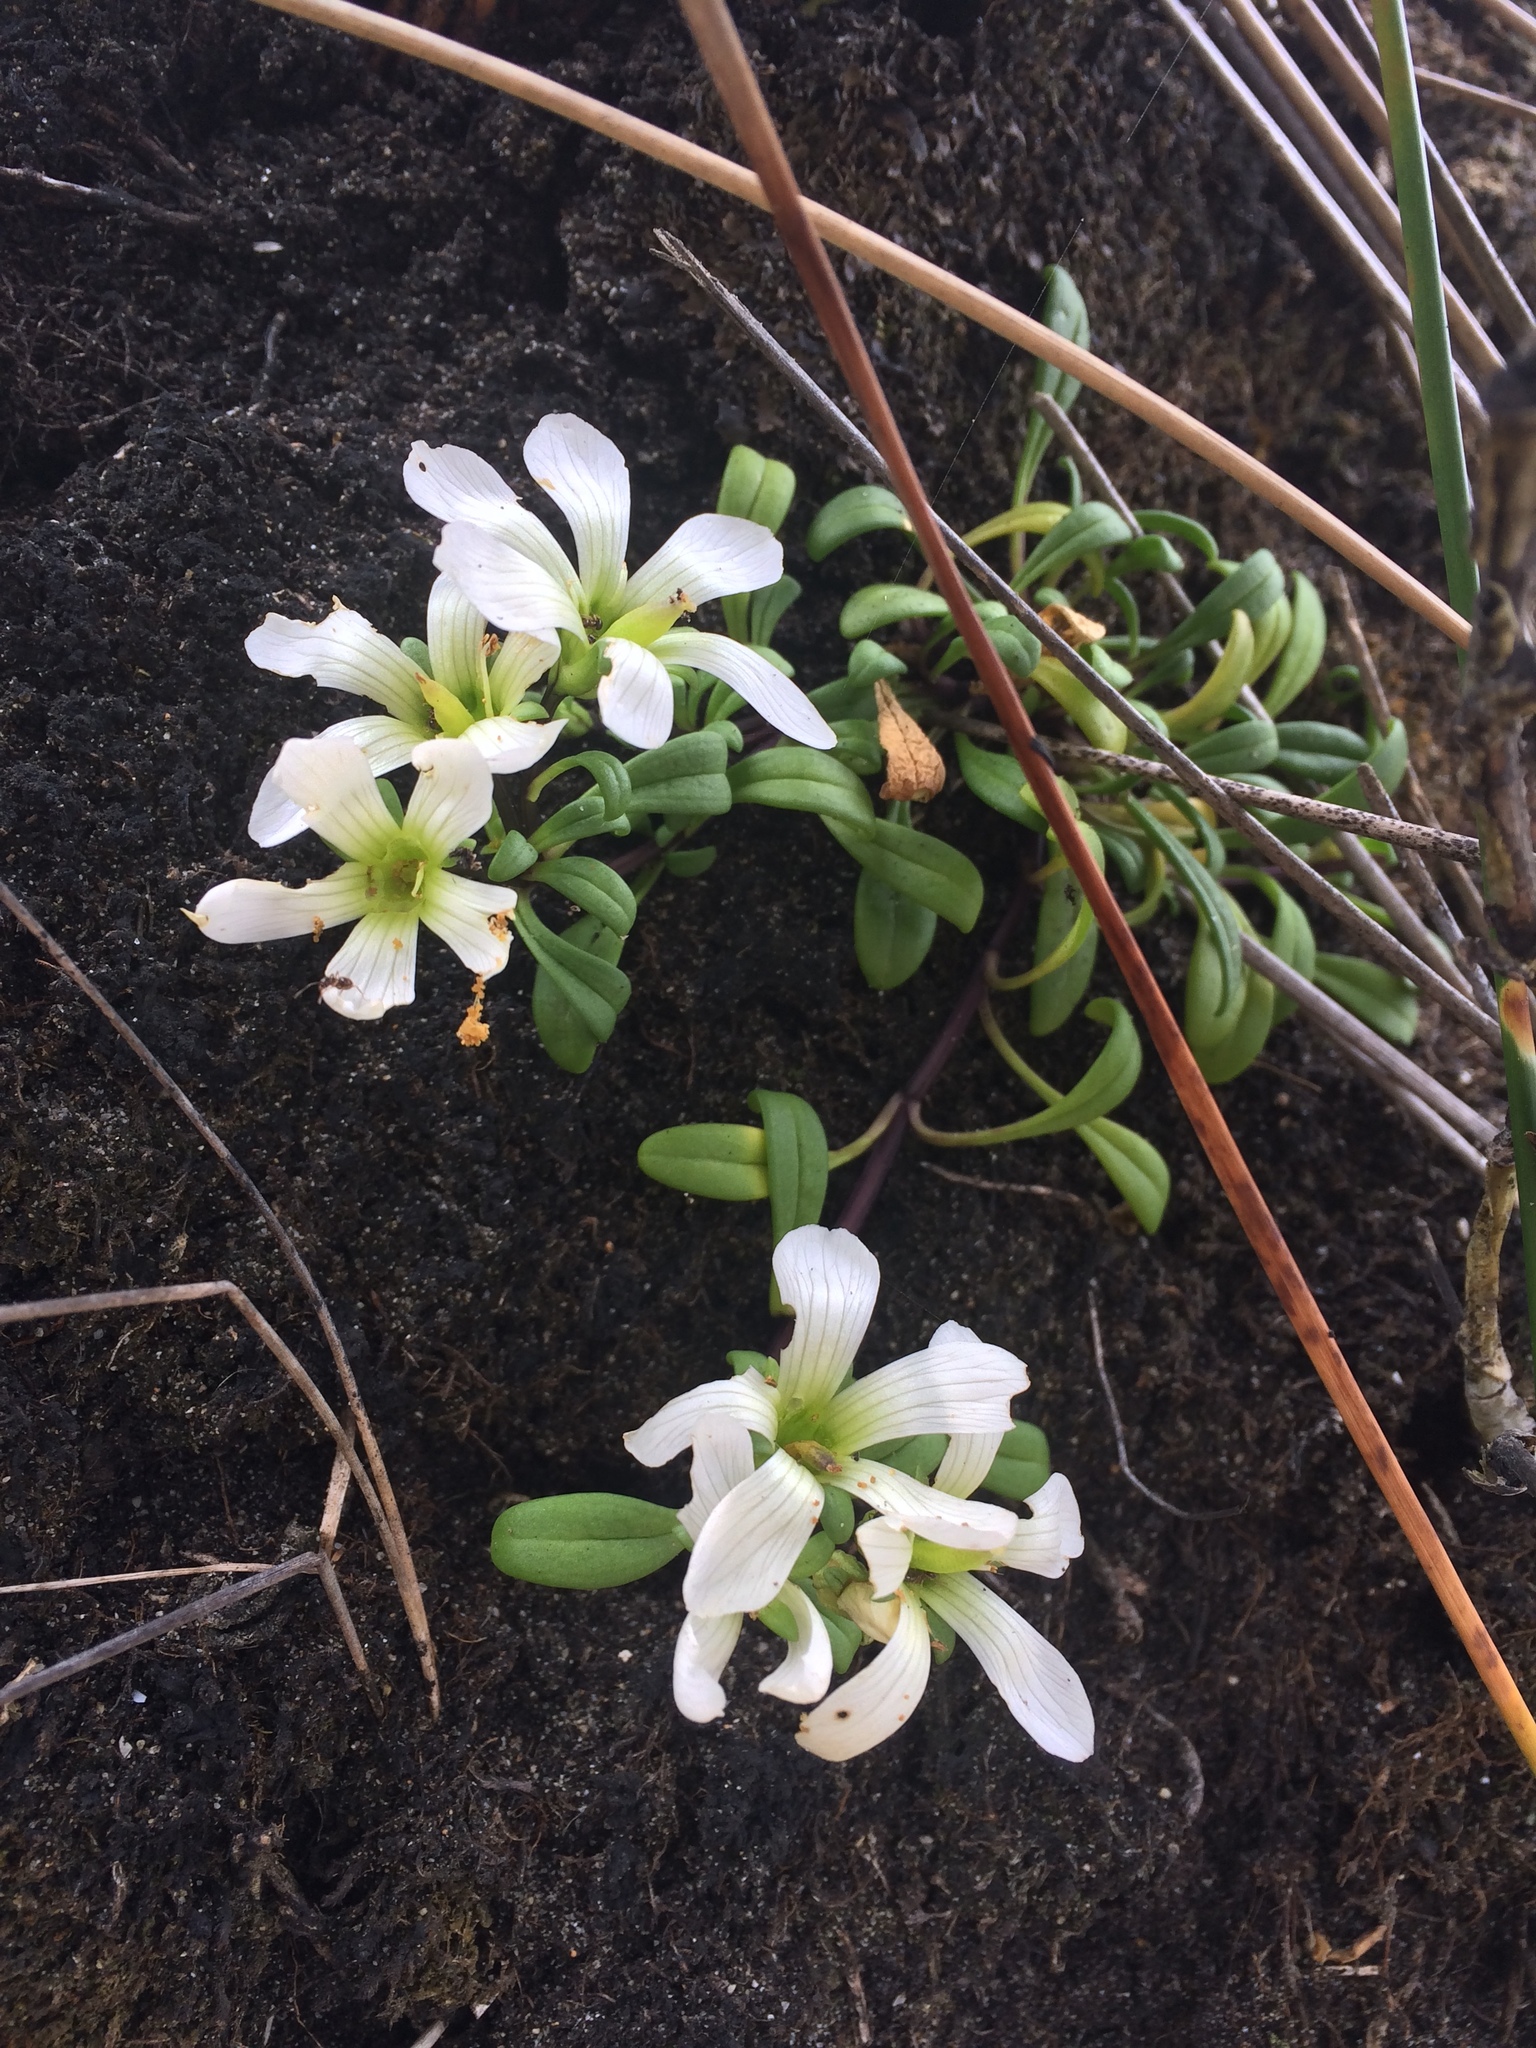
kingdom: Plantae
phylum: Tracheophyta
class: Magnoliopsida
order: Gentianales
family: Gentianaceae
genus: Gentianella
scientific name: Gentianella saxosa
